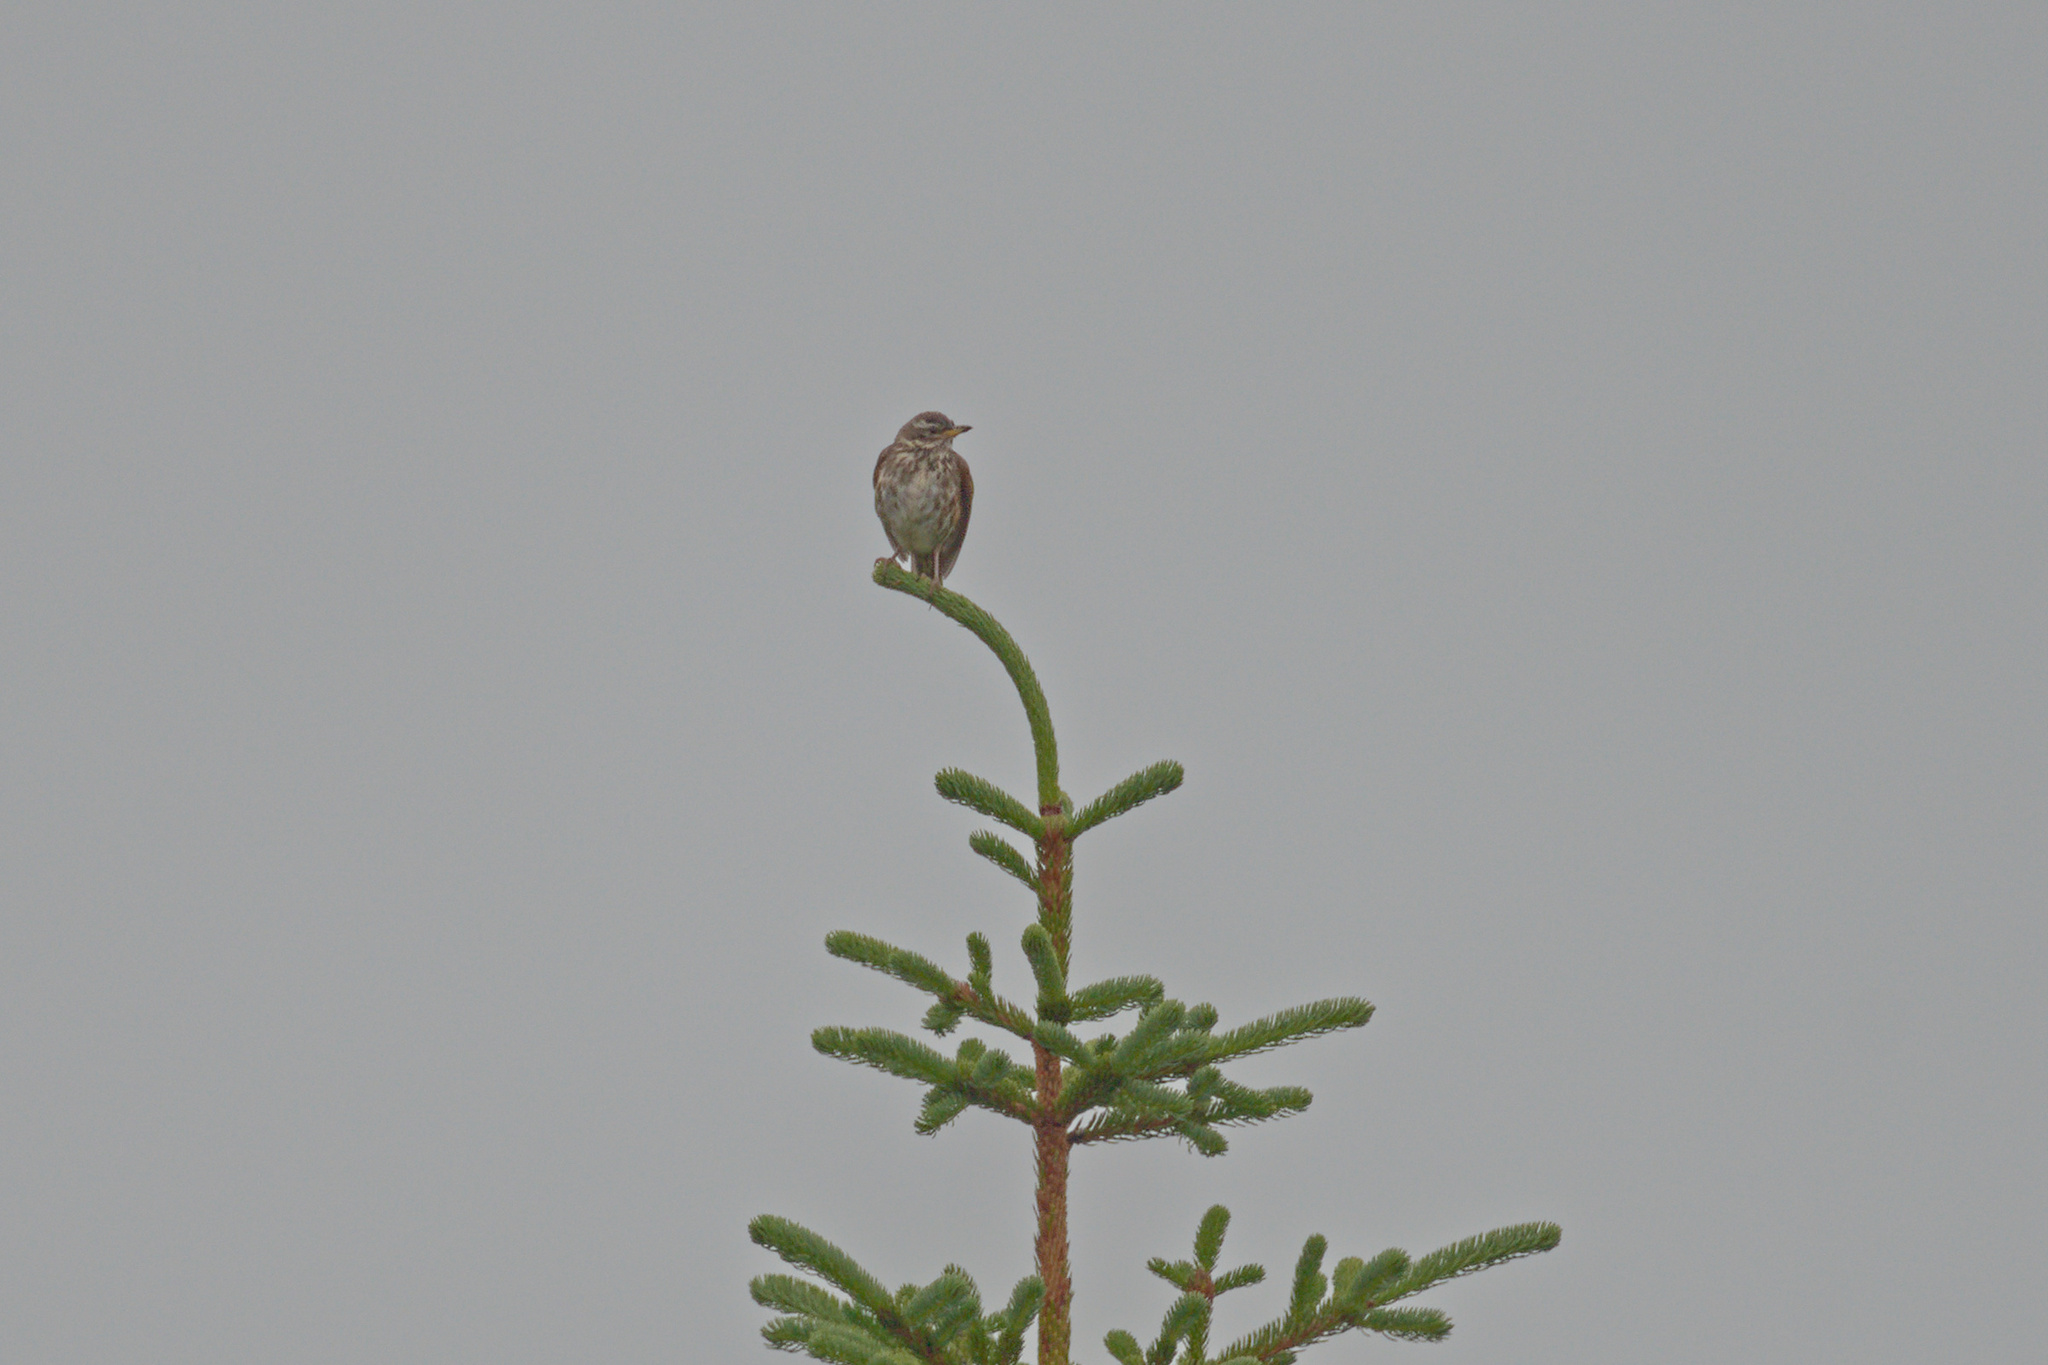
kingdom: Animalia
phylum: Chordata
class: Aves
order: Passeriformes
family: Turdidae
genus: Turdus
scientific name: Turdus iliacus
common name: Redwing
